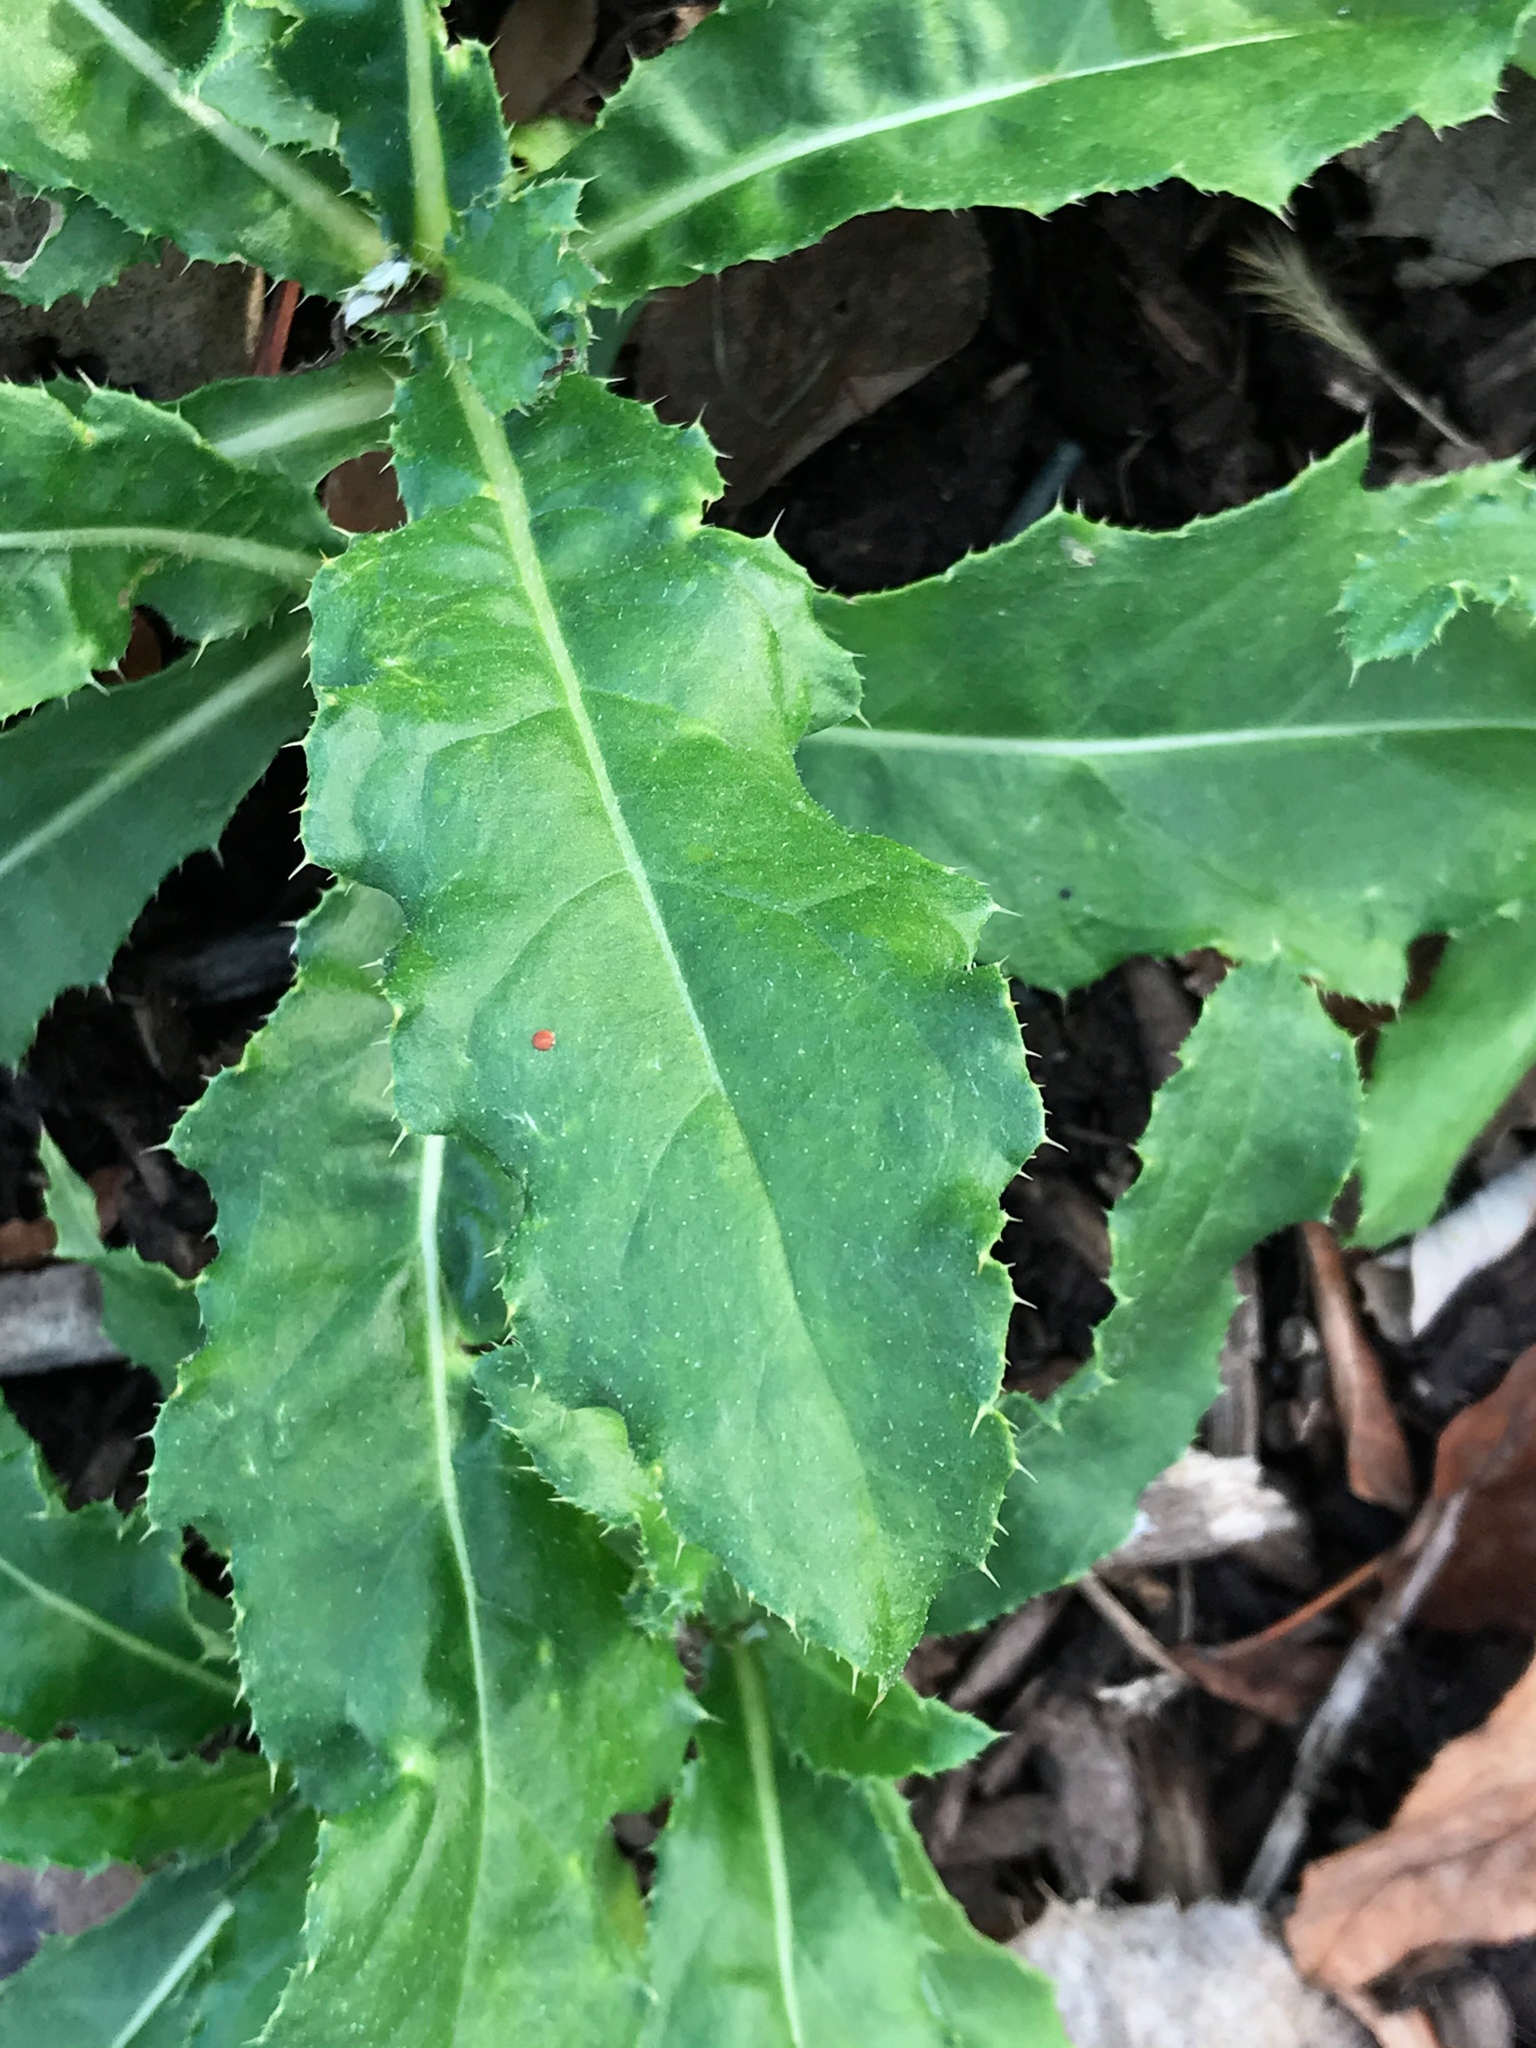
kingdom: Plantae
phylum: Tracheophyta
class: Magnoliopsida
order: Asterales
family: Asteraceae
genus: Cirsium
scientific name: Cirsium arvense
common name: Creeping thistle
